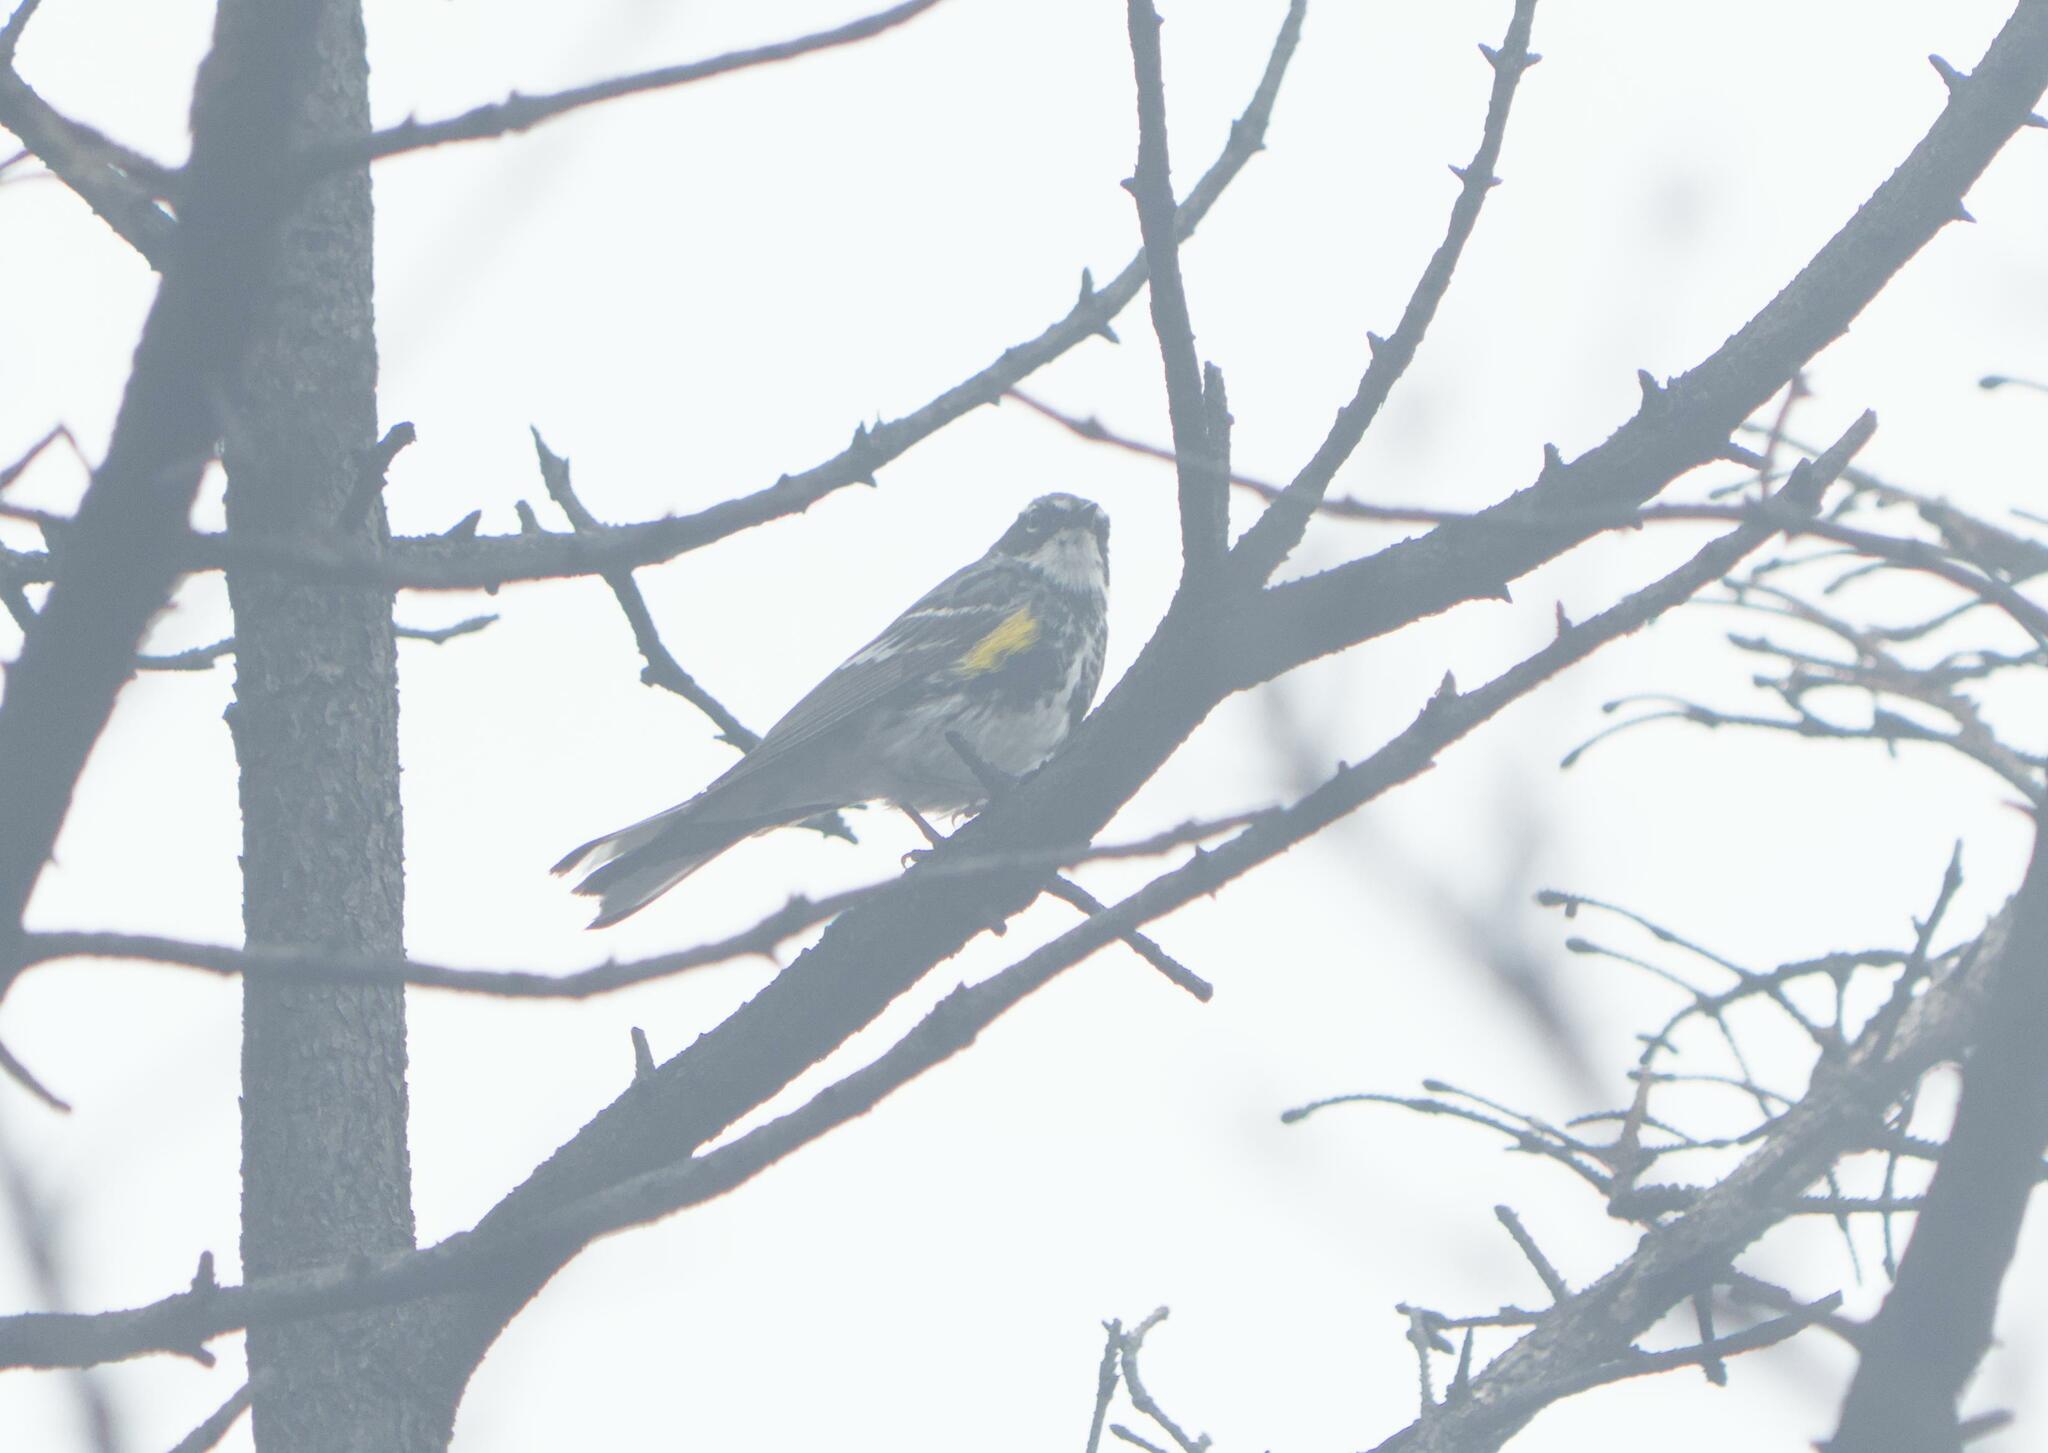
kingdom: Animalia
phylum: Chordata
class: Aves
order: Passeriformes
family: Parulidae
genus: Setophaga
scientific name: Setophaga coronata
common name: Myrtle warbler
